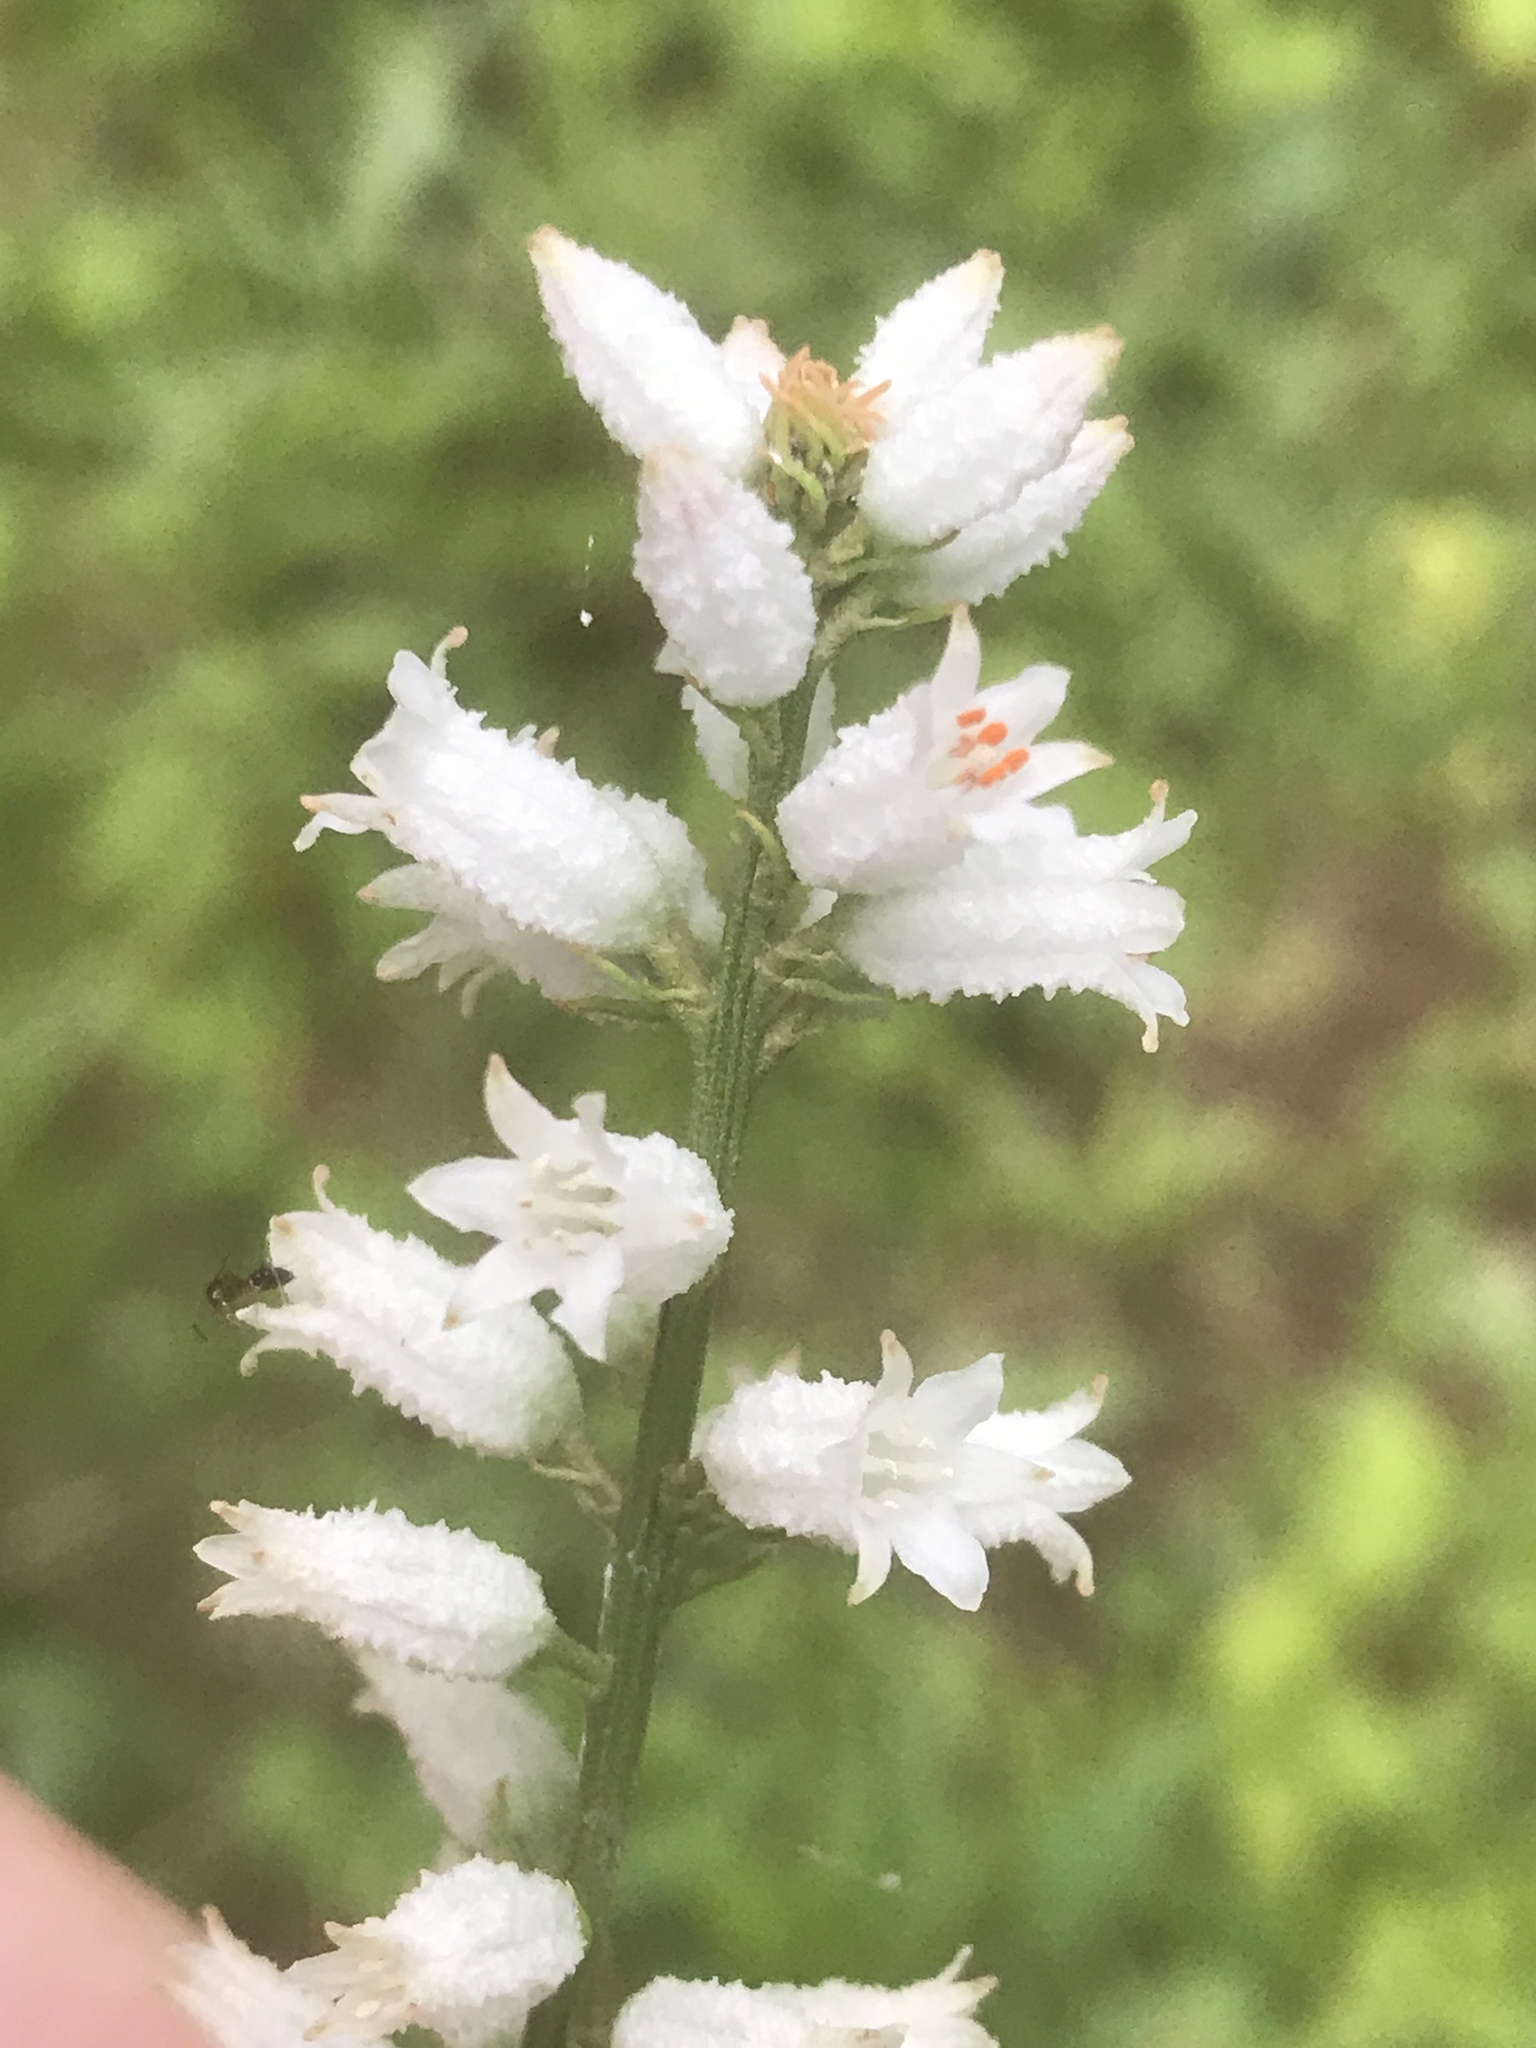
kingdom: Plantae
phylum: Tracheophyta
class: Liliopsida
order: Dioscoreales
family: Nartheciaceae
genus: Aletris
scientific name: Aletris farinosa
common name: Colicroot
